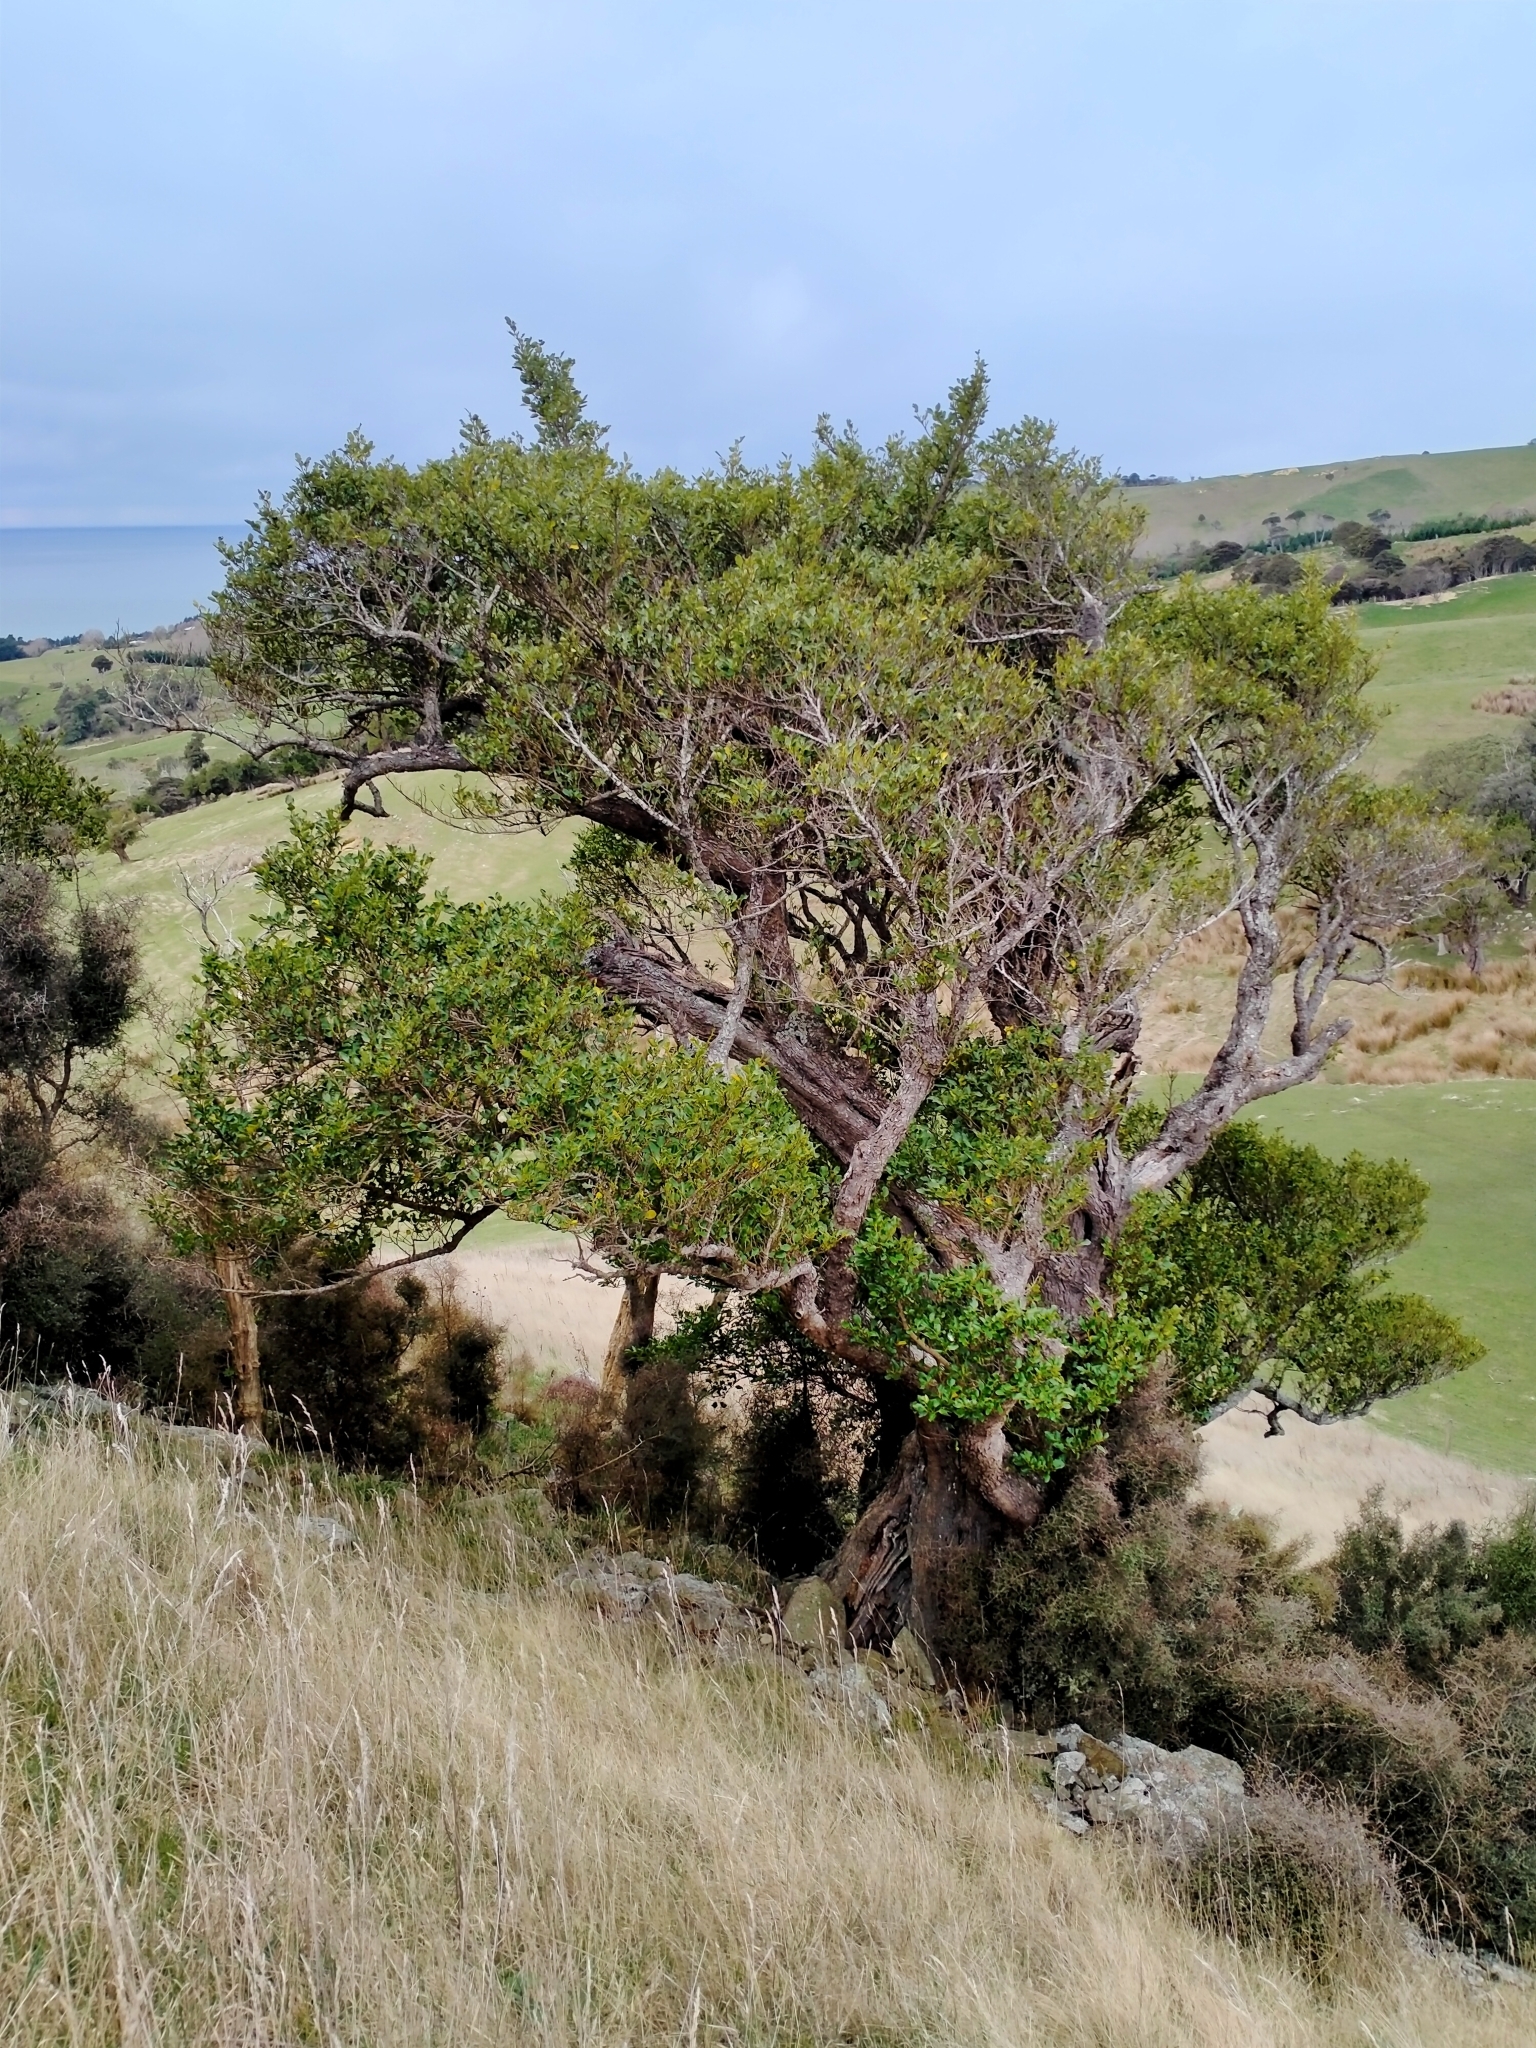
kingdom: Plantae
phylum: Tracheophyta
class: Magnoliopsida
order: Apiales
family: Griseliniaceae
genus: Griselinia
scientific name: Griselinia littoralis
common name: New zealand broadleaf
